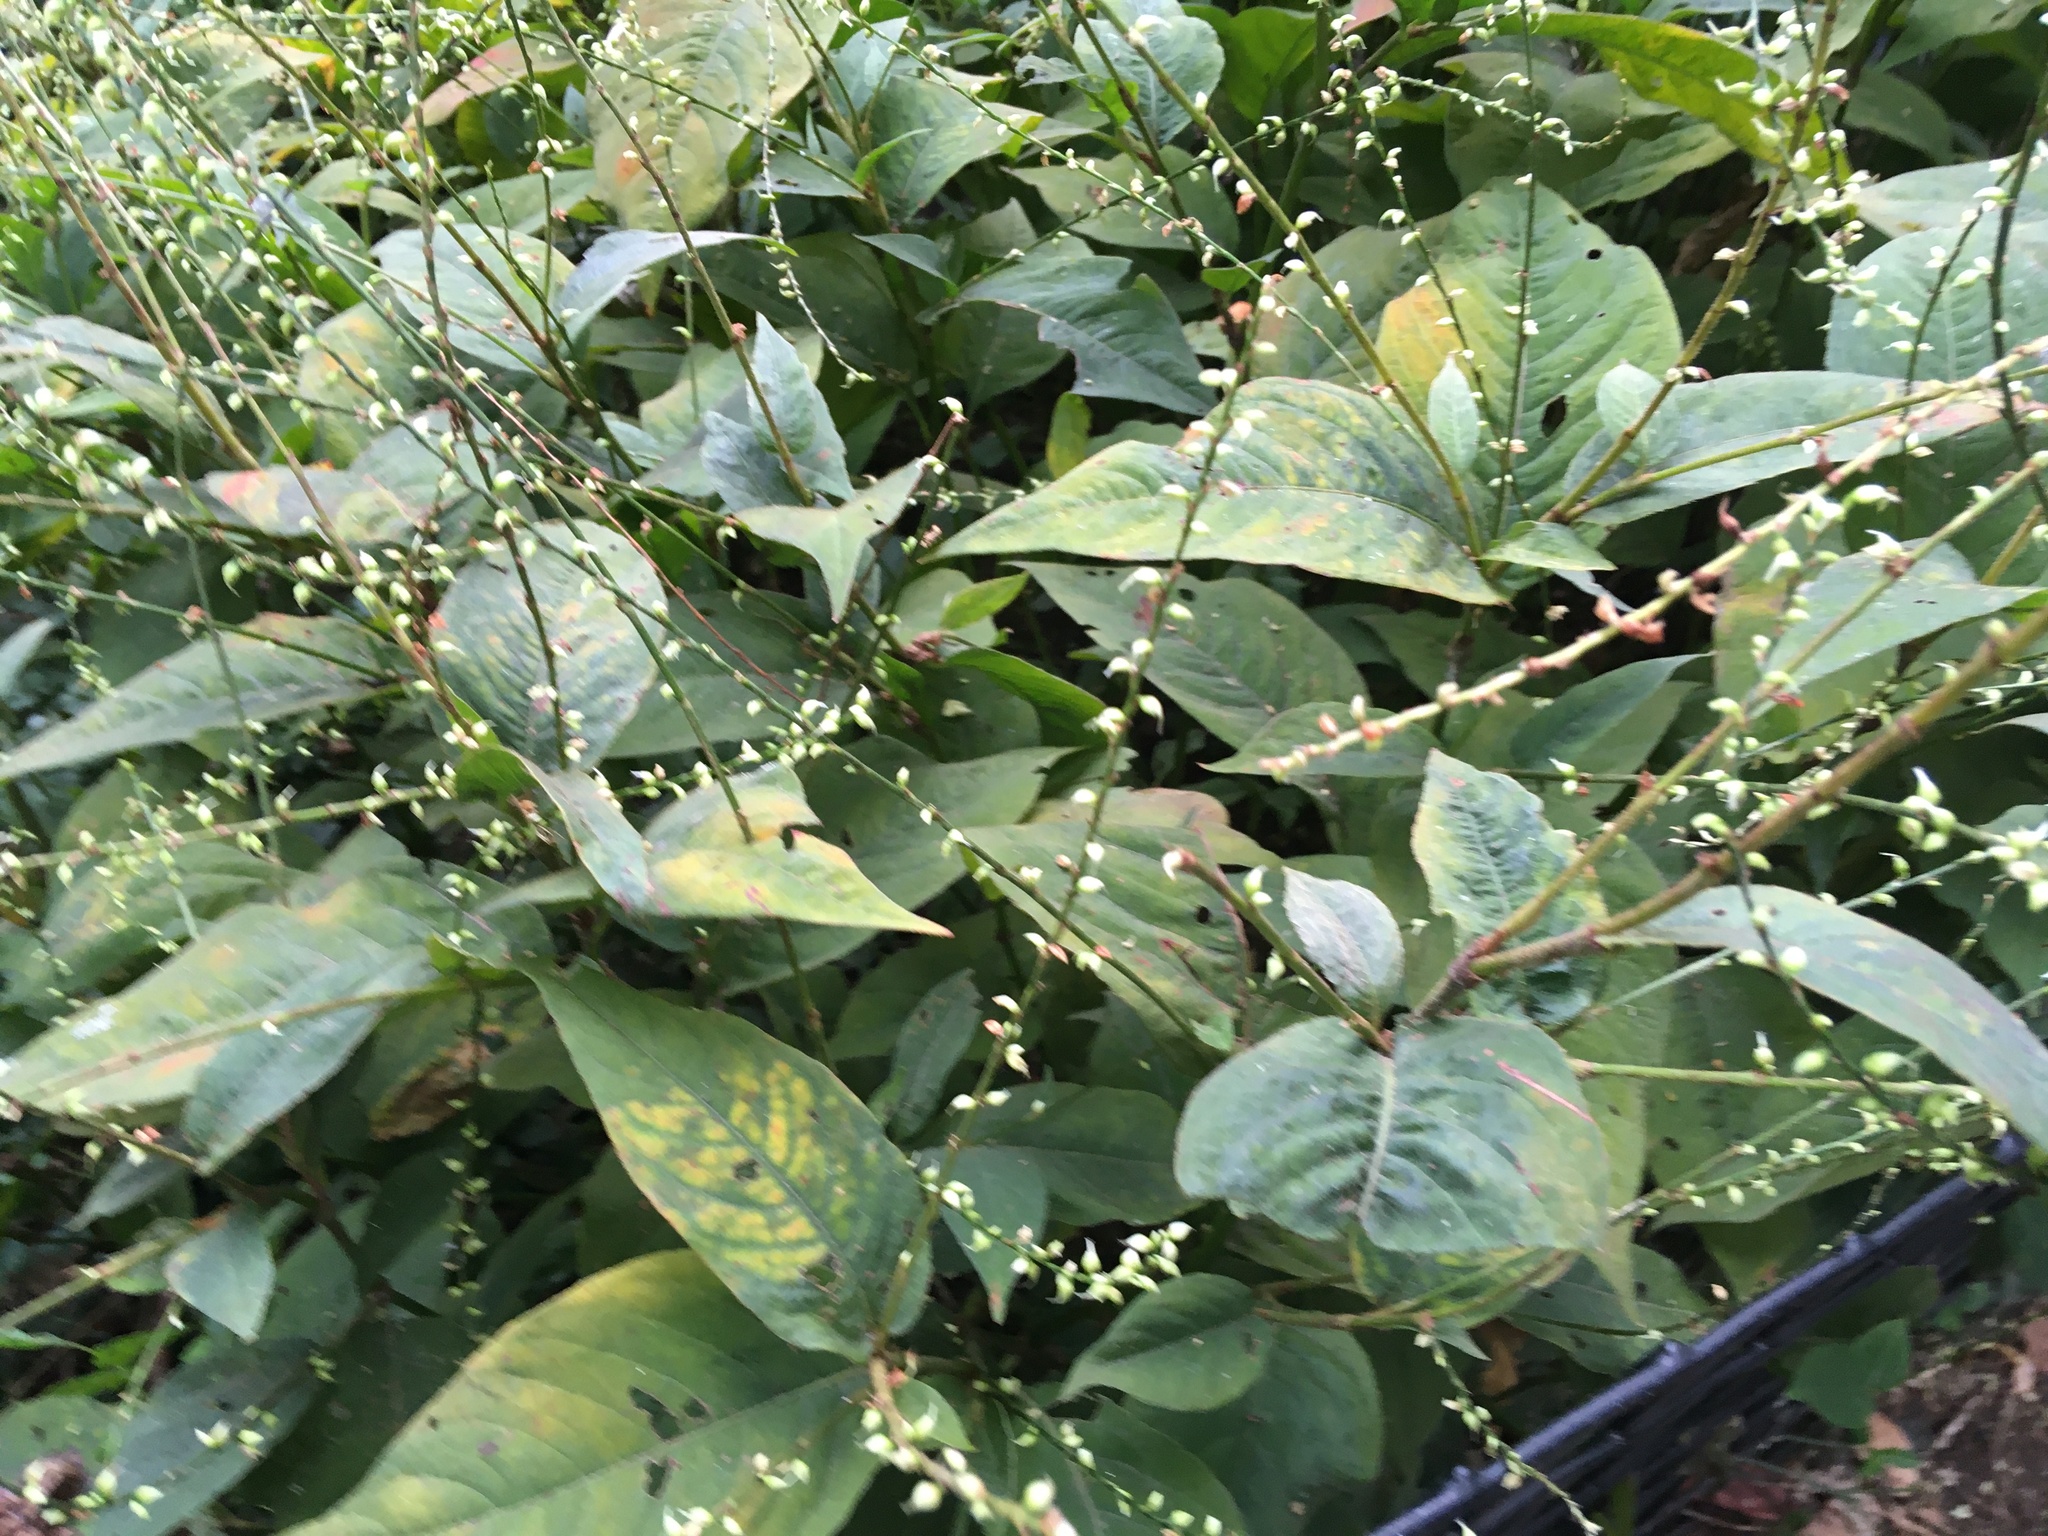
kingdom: Plantae
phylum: Tracheophyta
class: Magnoliopsida
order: Caryophyllales
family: Polygonaceae
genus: Persicaria
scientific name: Persicaria virginiana
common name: Jumpseed
